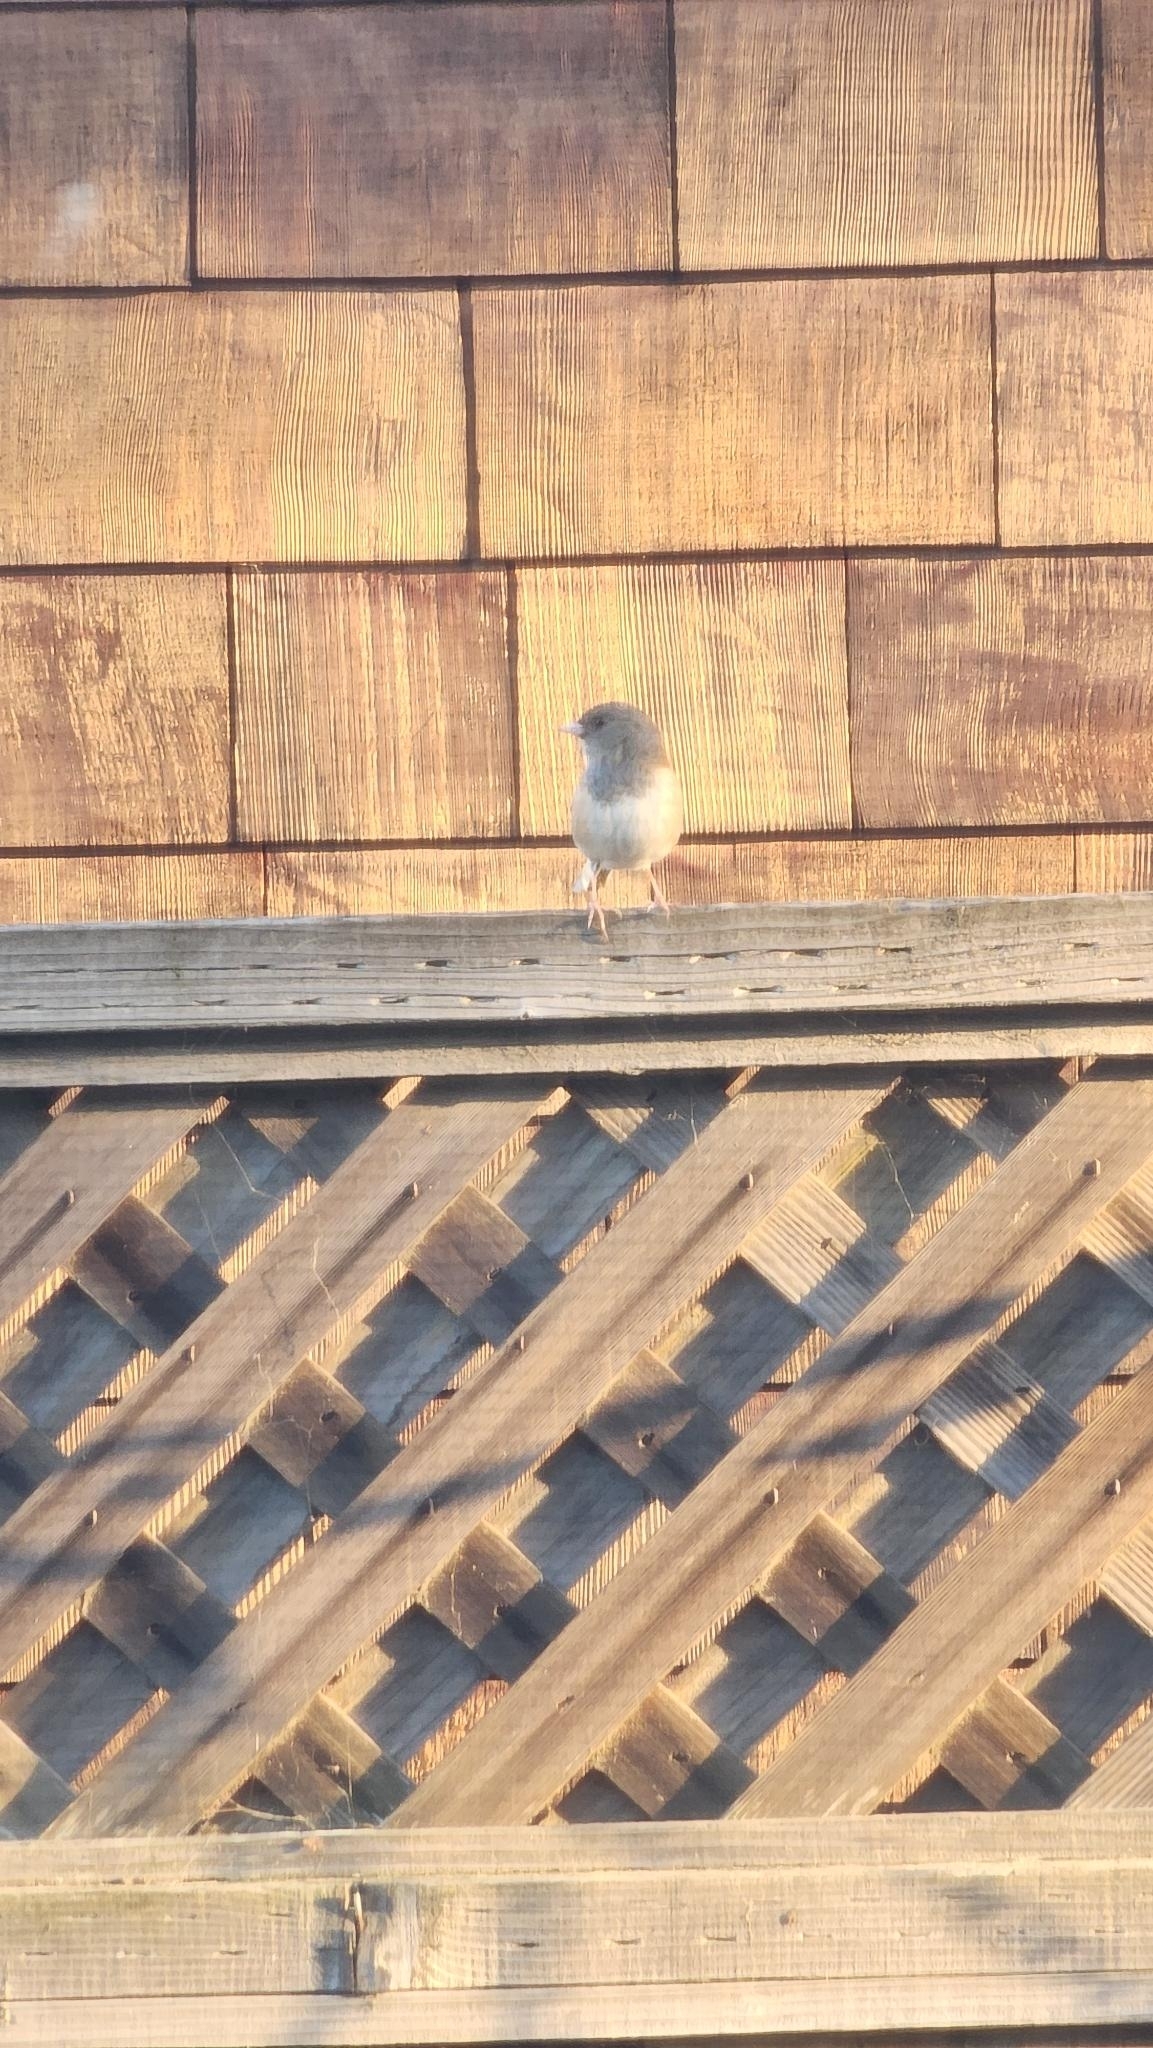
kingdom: Animalia
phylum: Chordata
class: Aves
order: Passeriformes
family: Passerellidae
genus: Junco
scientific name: Junco hyemalis
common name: Dark-eyed junco
